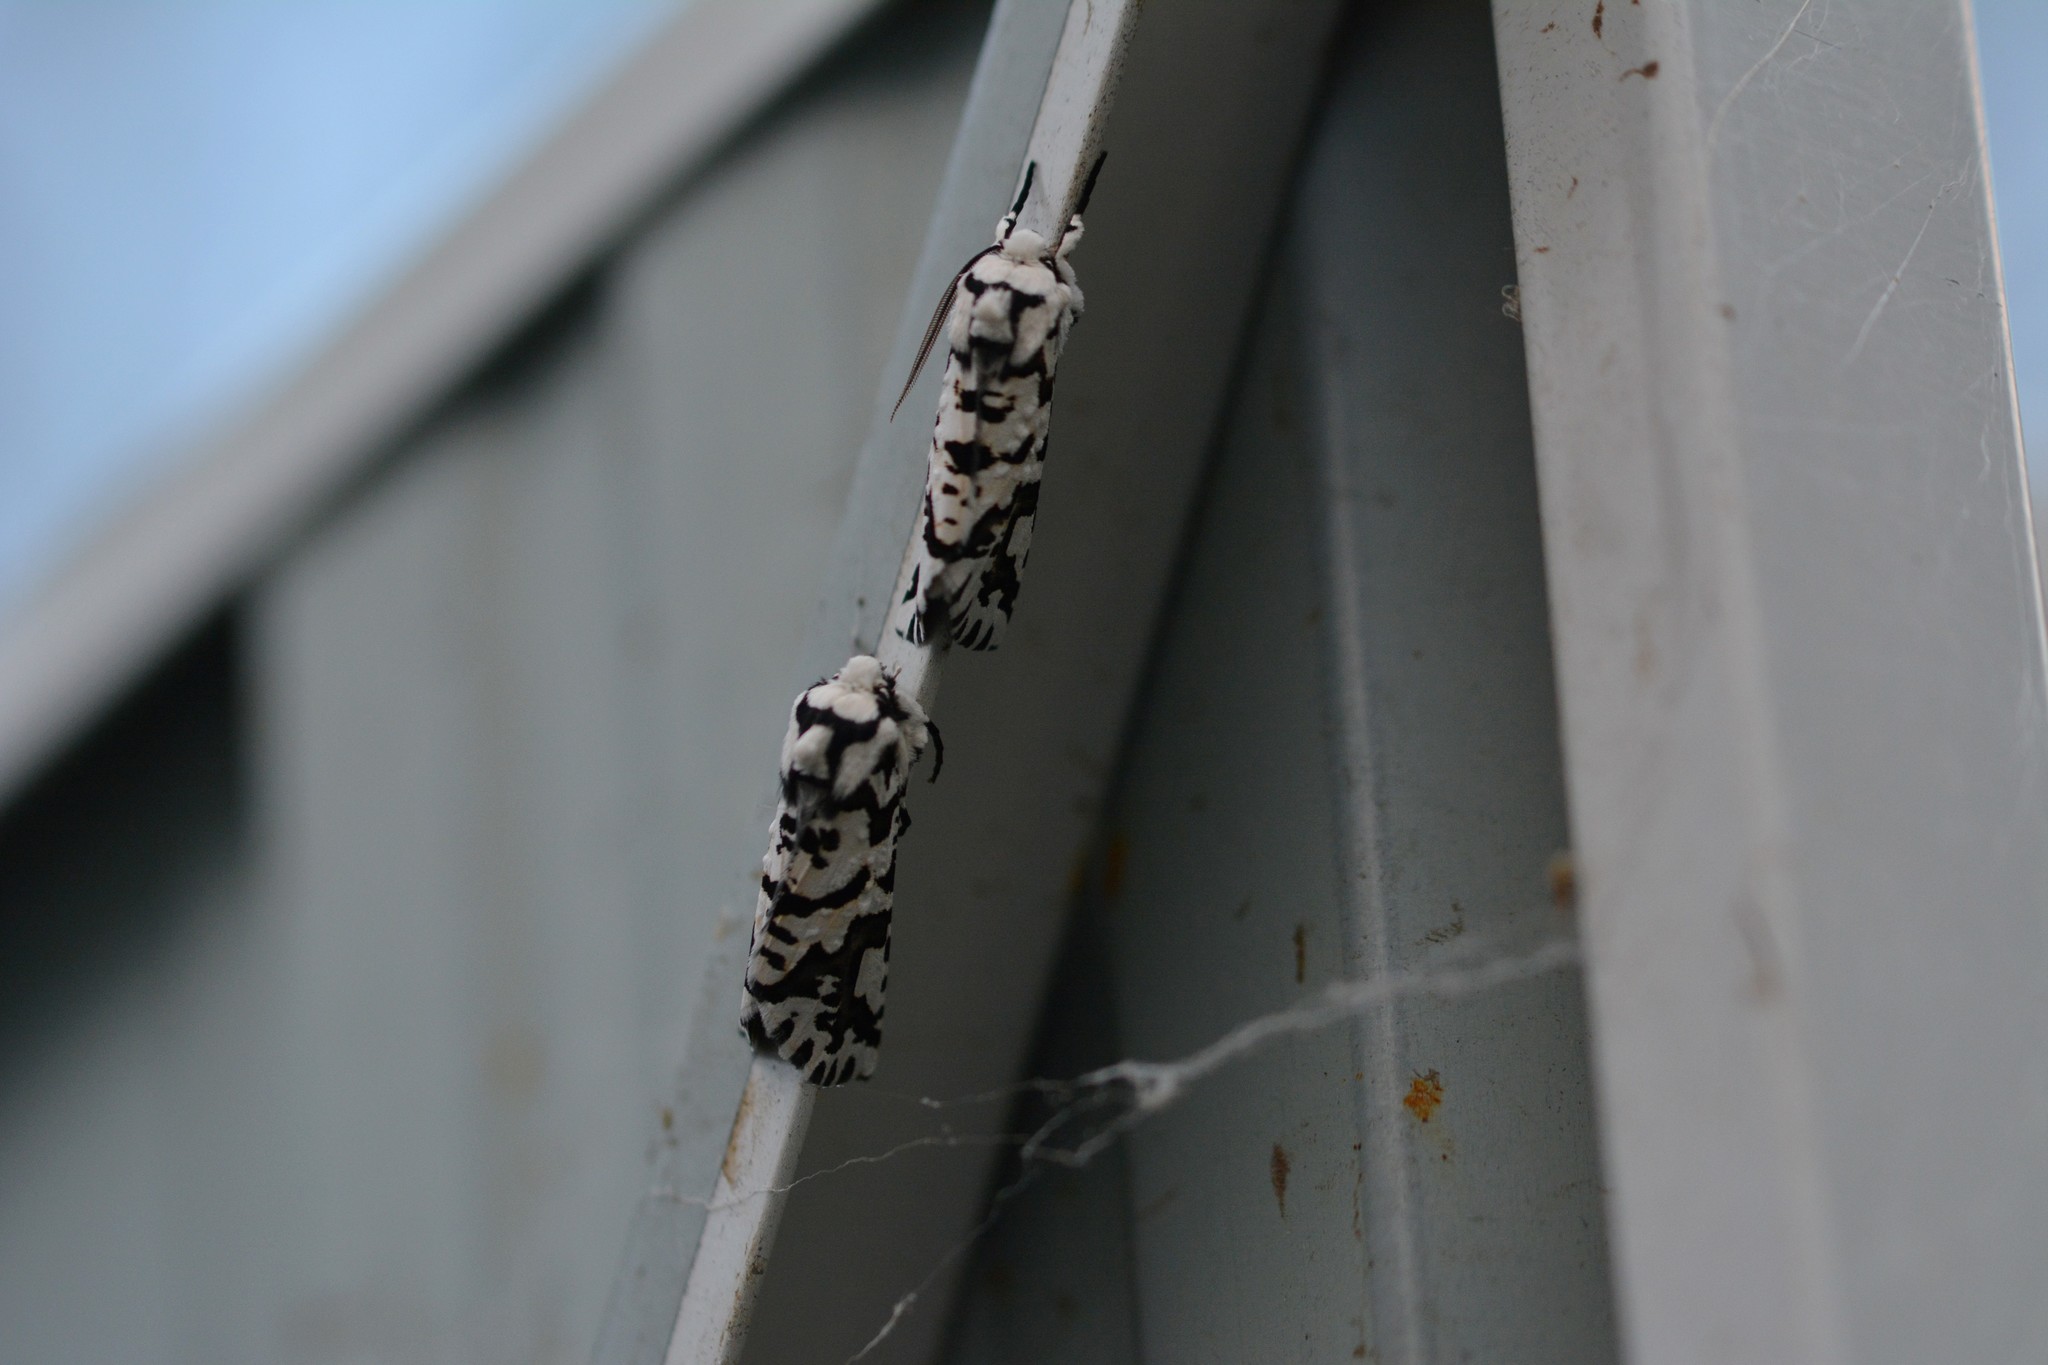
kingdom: Animalia
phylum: Arthropoda
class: Insecta
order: Lepidoptera
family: Geometridae
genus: Declana
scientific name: Declana
